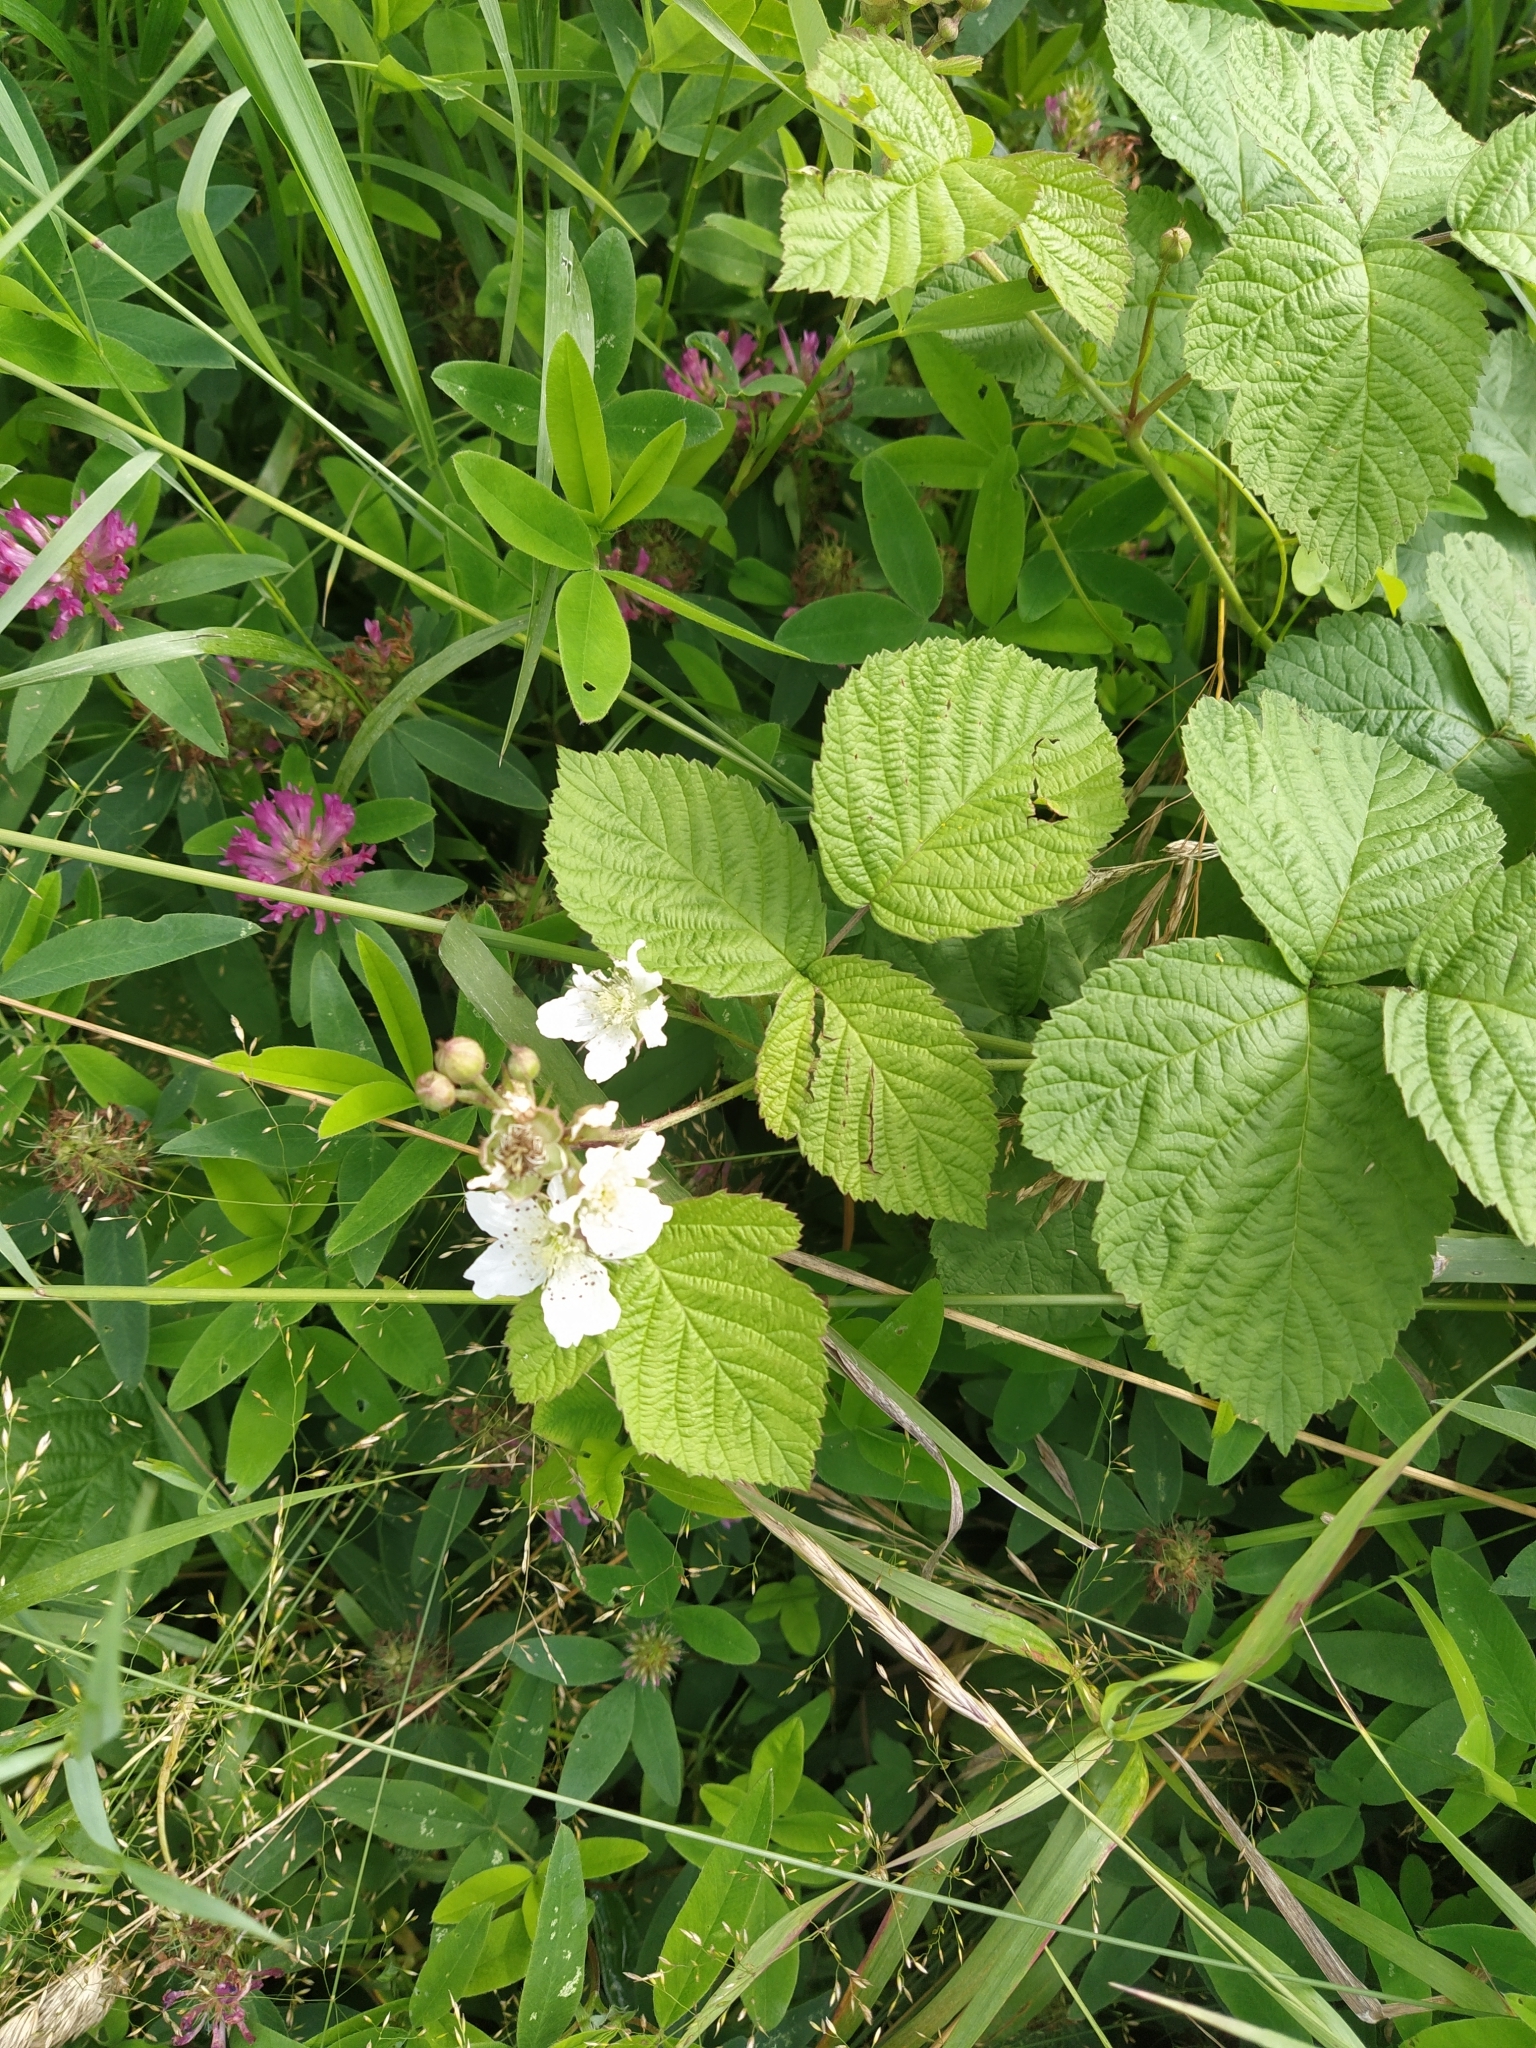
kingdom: Plantae
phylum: Tracheophyta
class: Magnoliopsida
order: Rosales
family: Rosaceae
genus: Rubus
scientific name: Rubus caesius
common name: Dewberry
